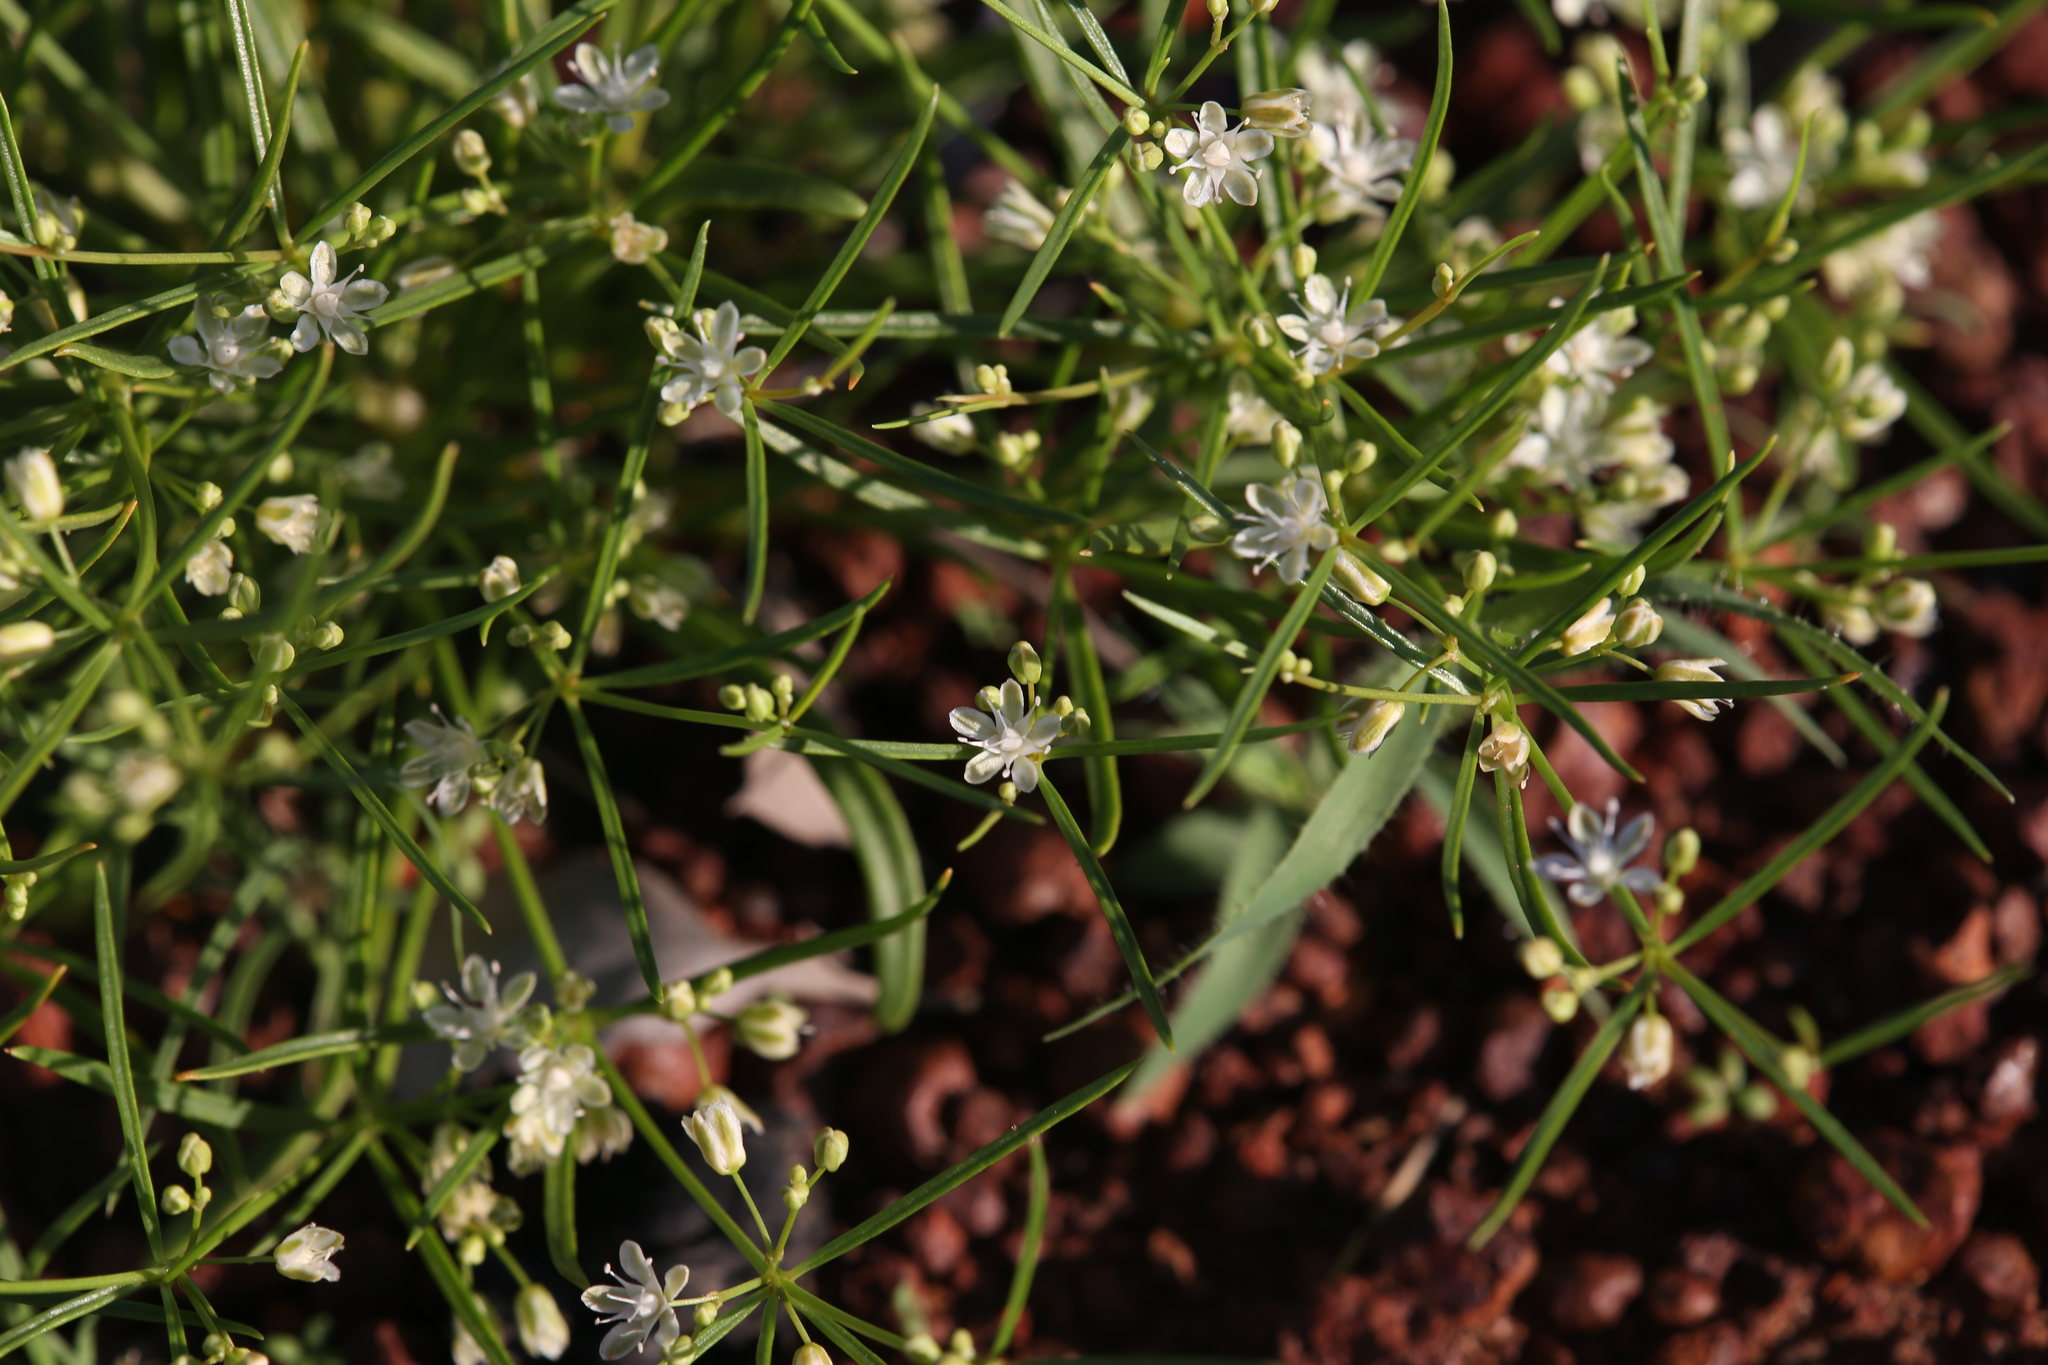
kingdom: Plantae
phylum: Tracheophyta
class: Magnoliopsida
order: Caryophyllales
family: Molluginaceae
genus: Trigastrotheca
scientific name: Trigastrotheca molluginea
